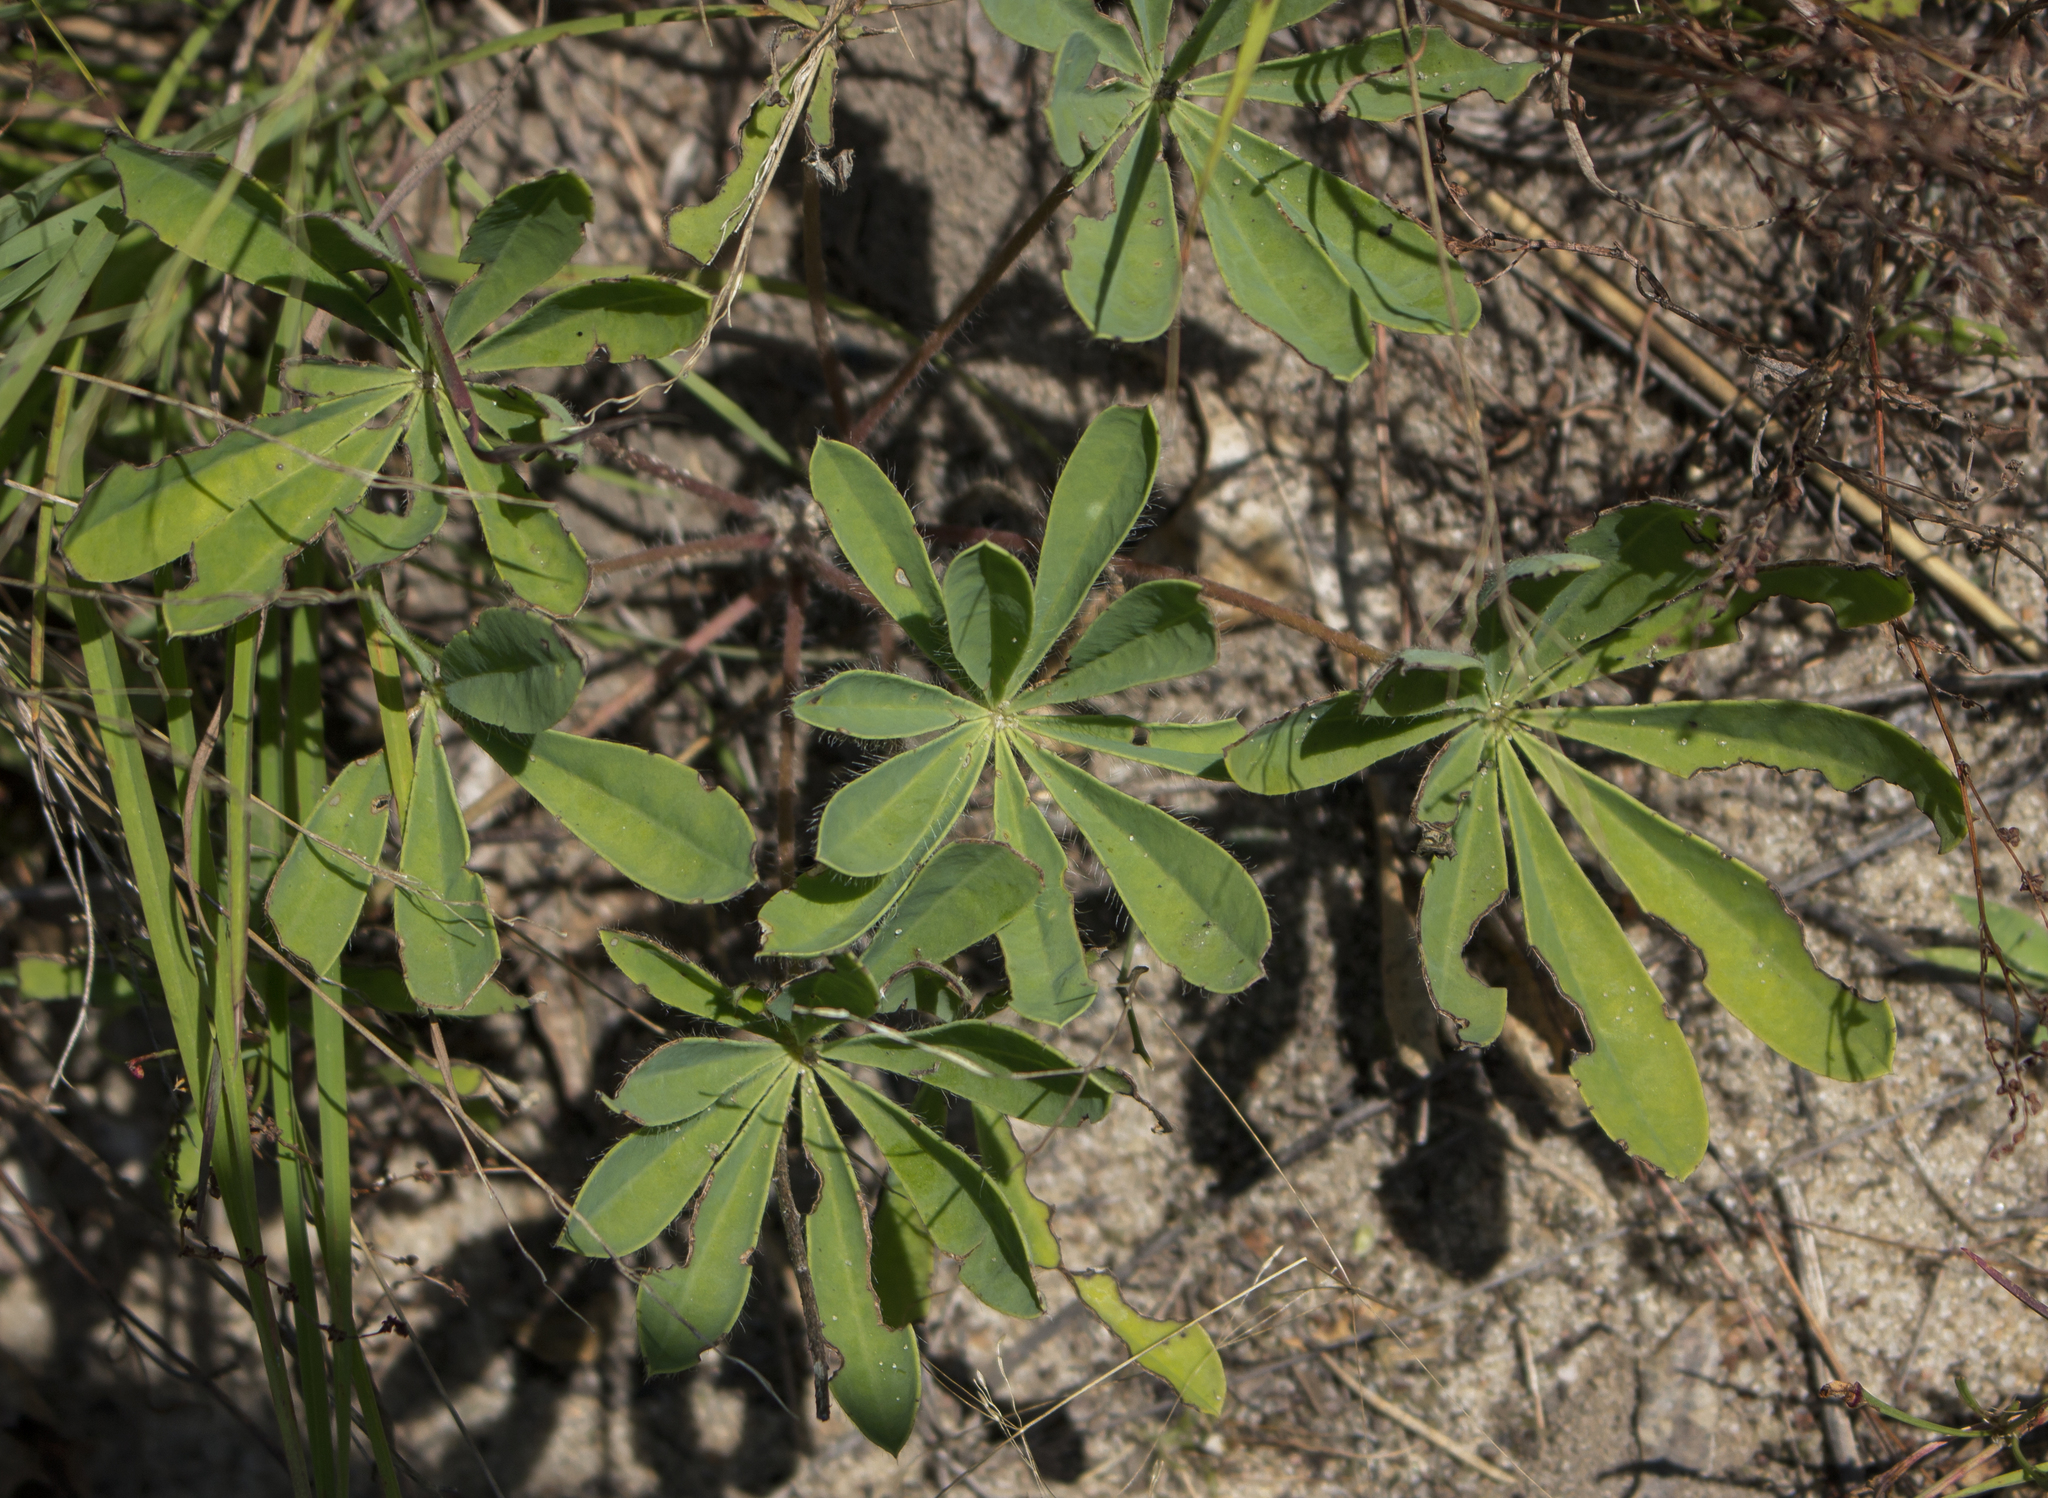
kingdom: Plantae
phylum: Tracheophyta
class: Magnoliopsida
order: Fabales
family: Fabaceae
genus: Lupinus
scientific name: Lupinus perennis
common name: Sundial lupine
